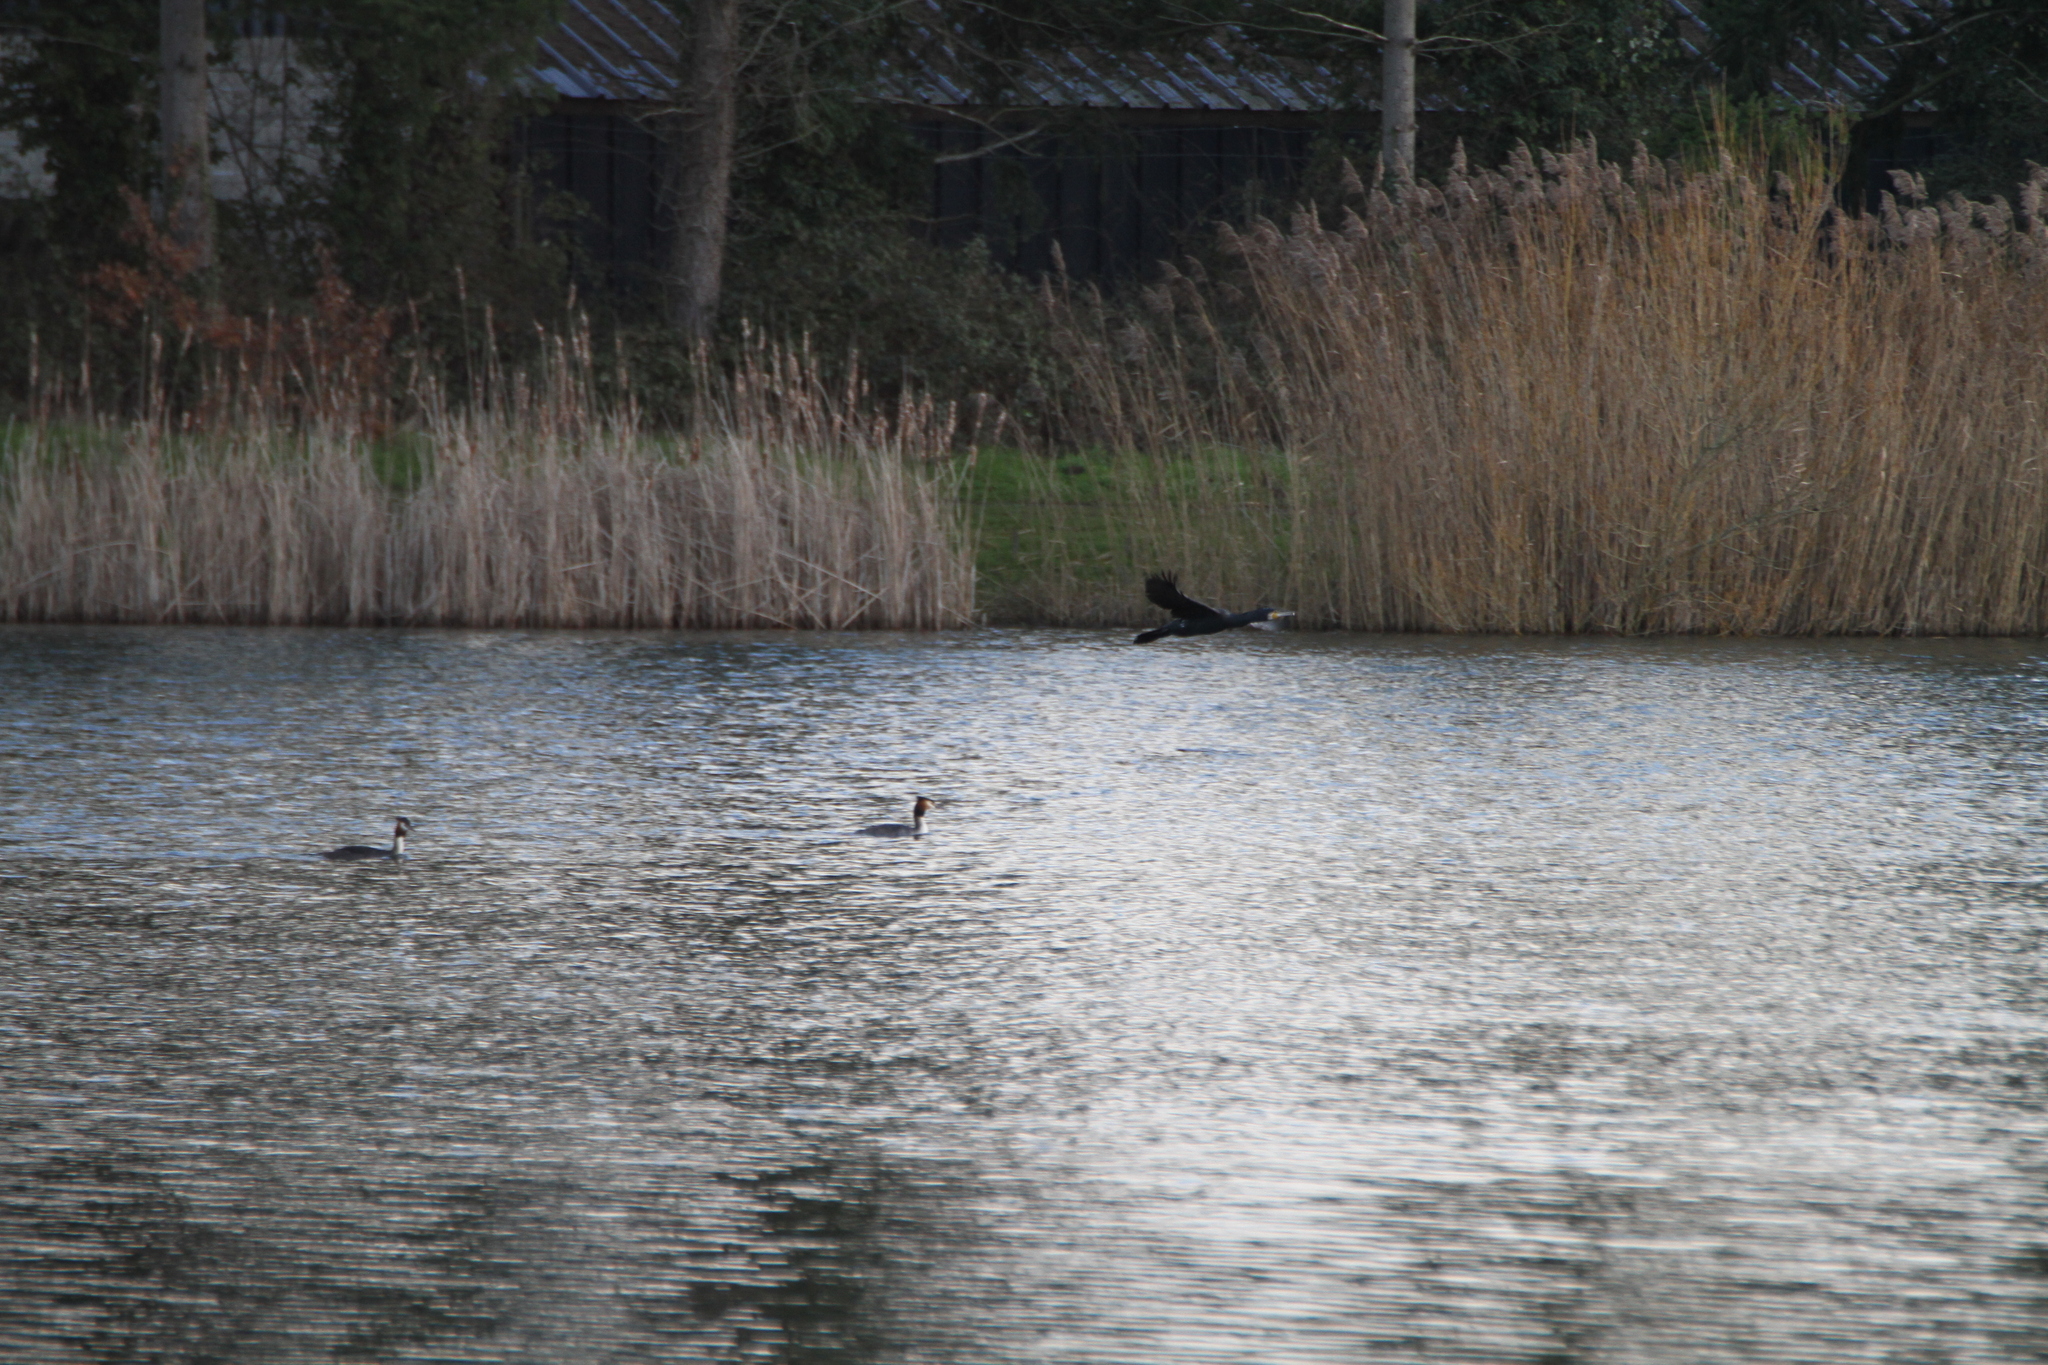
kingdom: Animalia
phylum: Chordata
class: Aves
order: Suliformes
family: Phalacrocoracidae
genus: Phalacrocorax
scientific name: Phalacrocorax carbo
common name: Great cormorant
